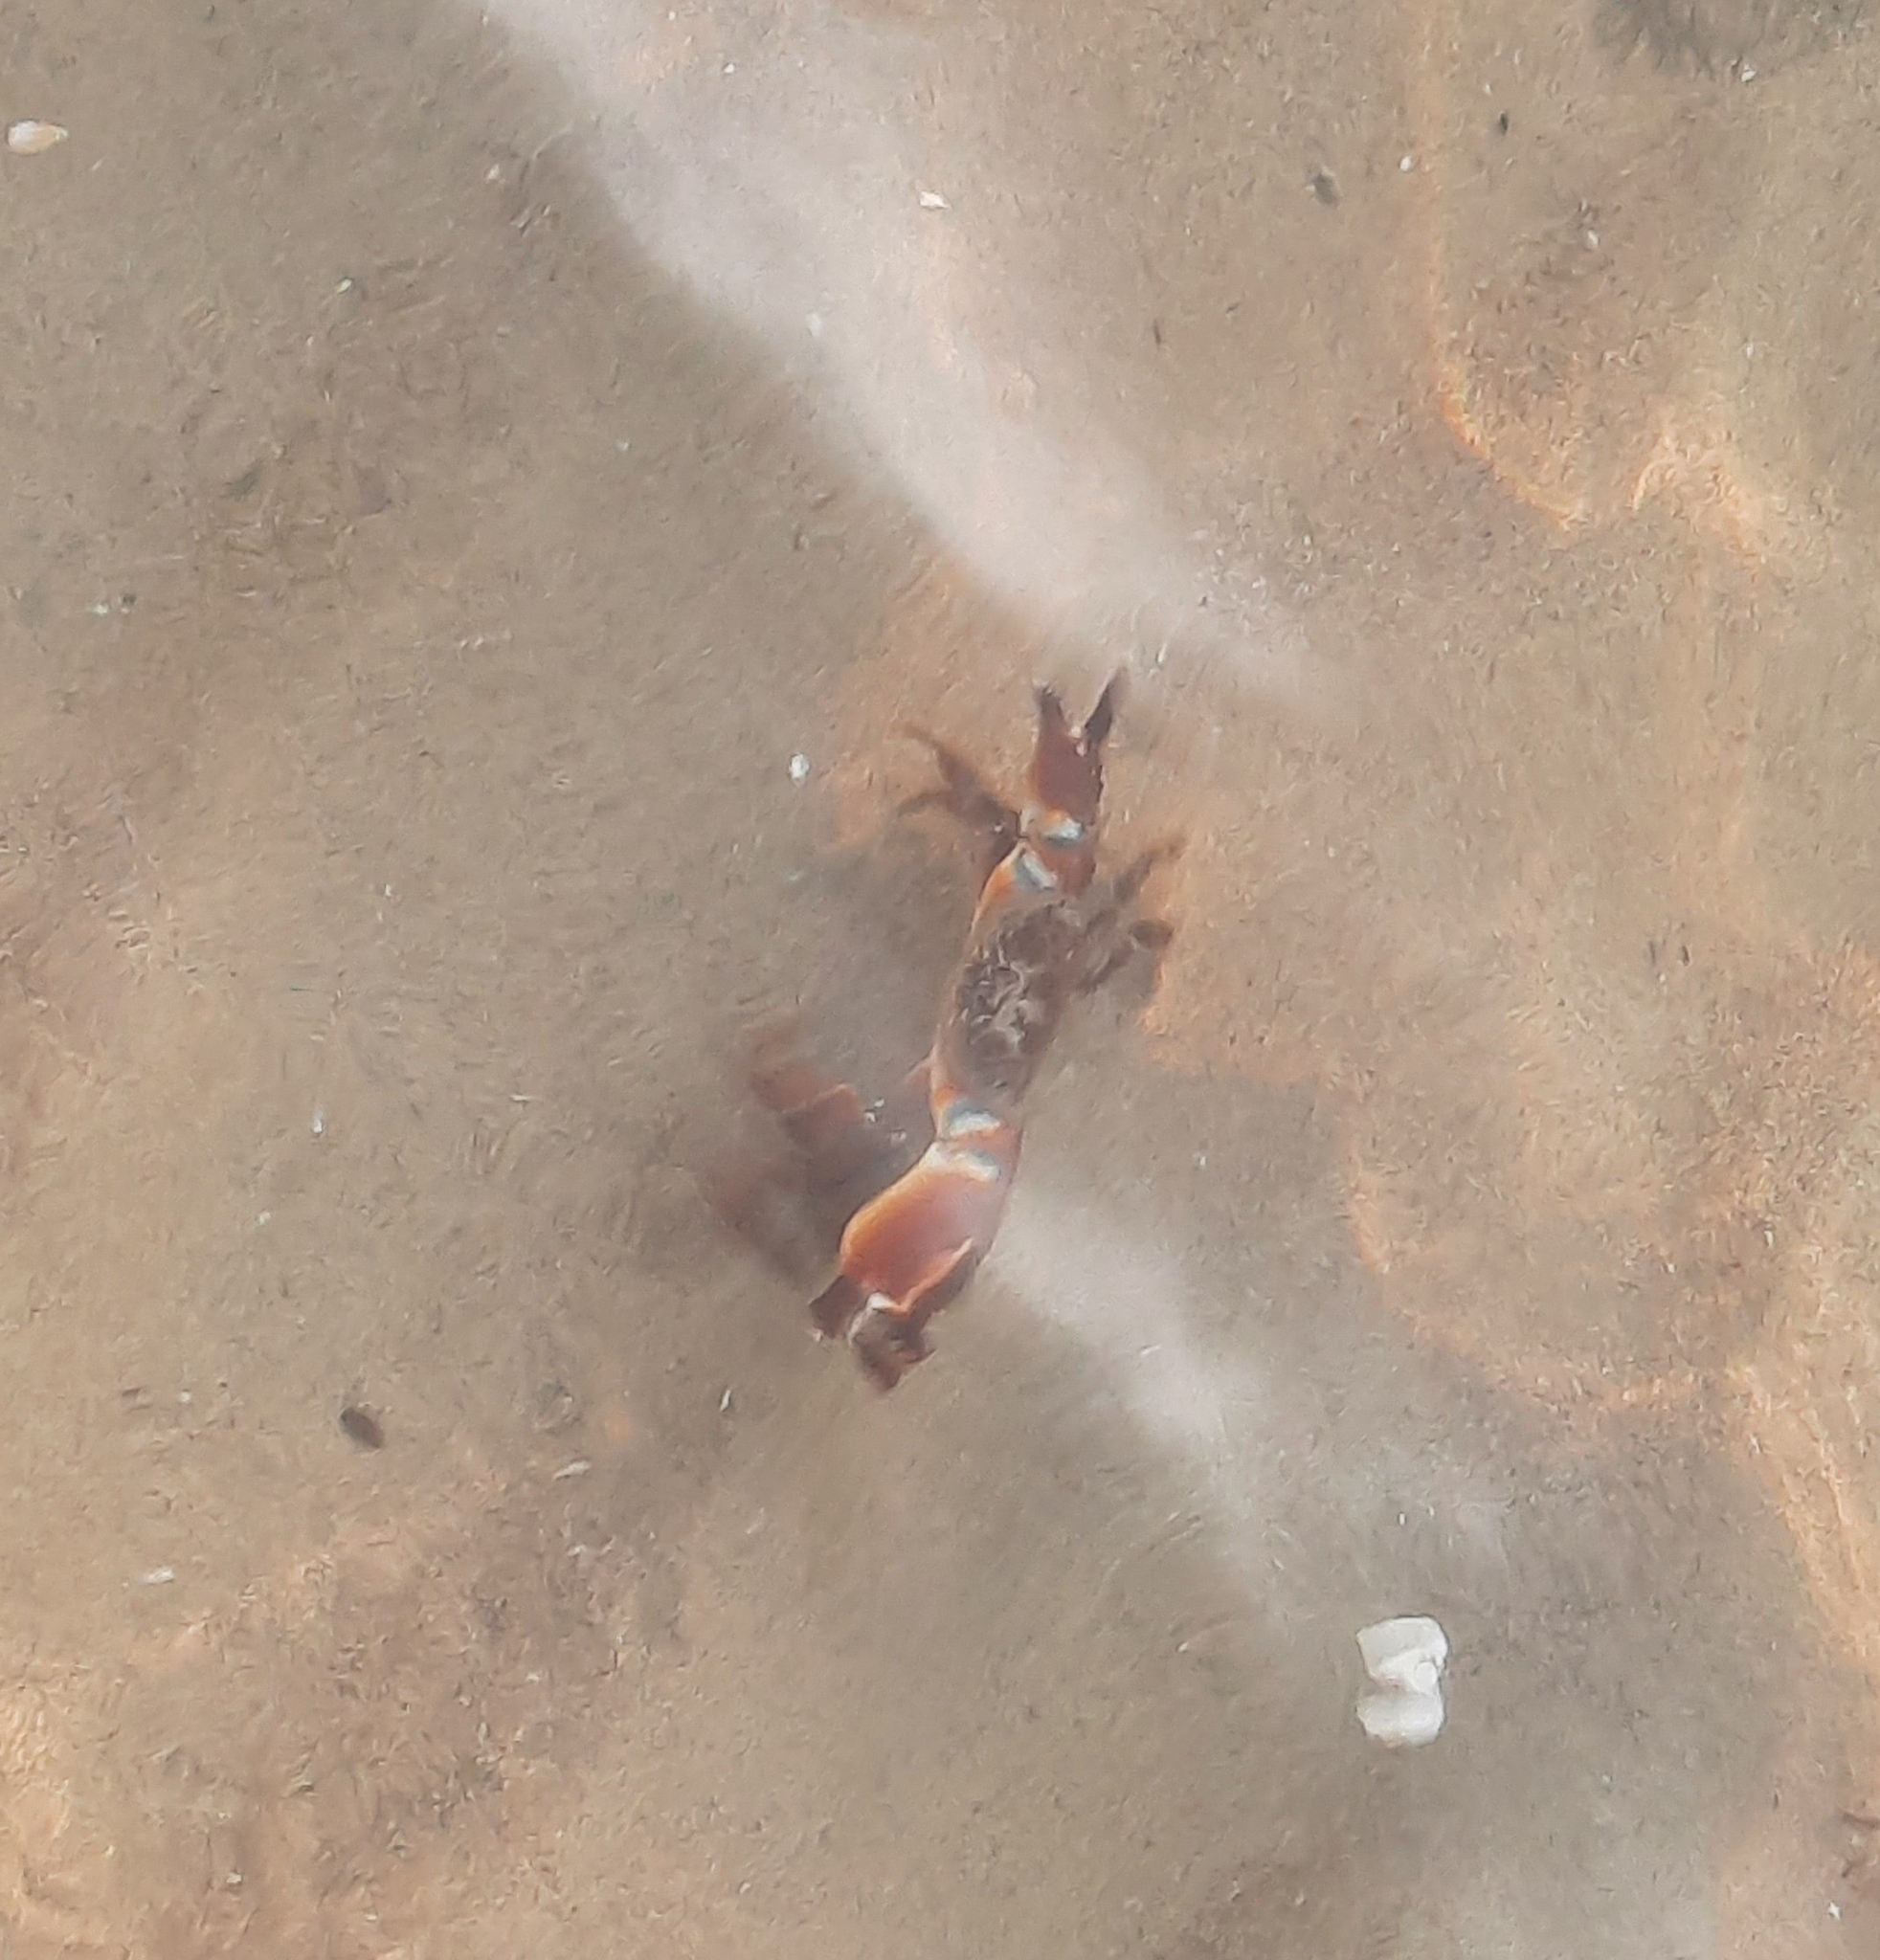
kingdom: Animalia
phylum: Arthropoda
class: Malacostraca
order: Decapoda
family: Eriphiidae
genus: Eriphia
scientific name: Eriphia verrucosa
